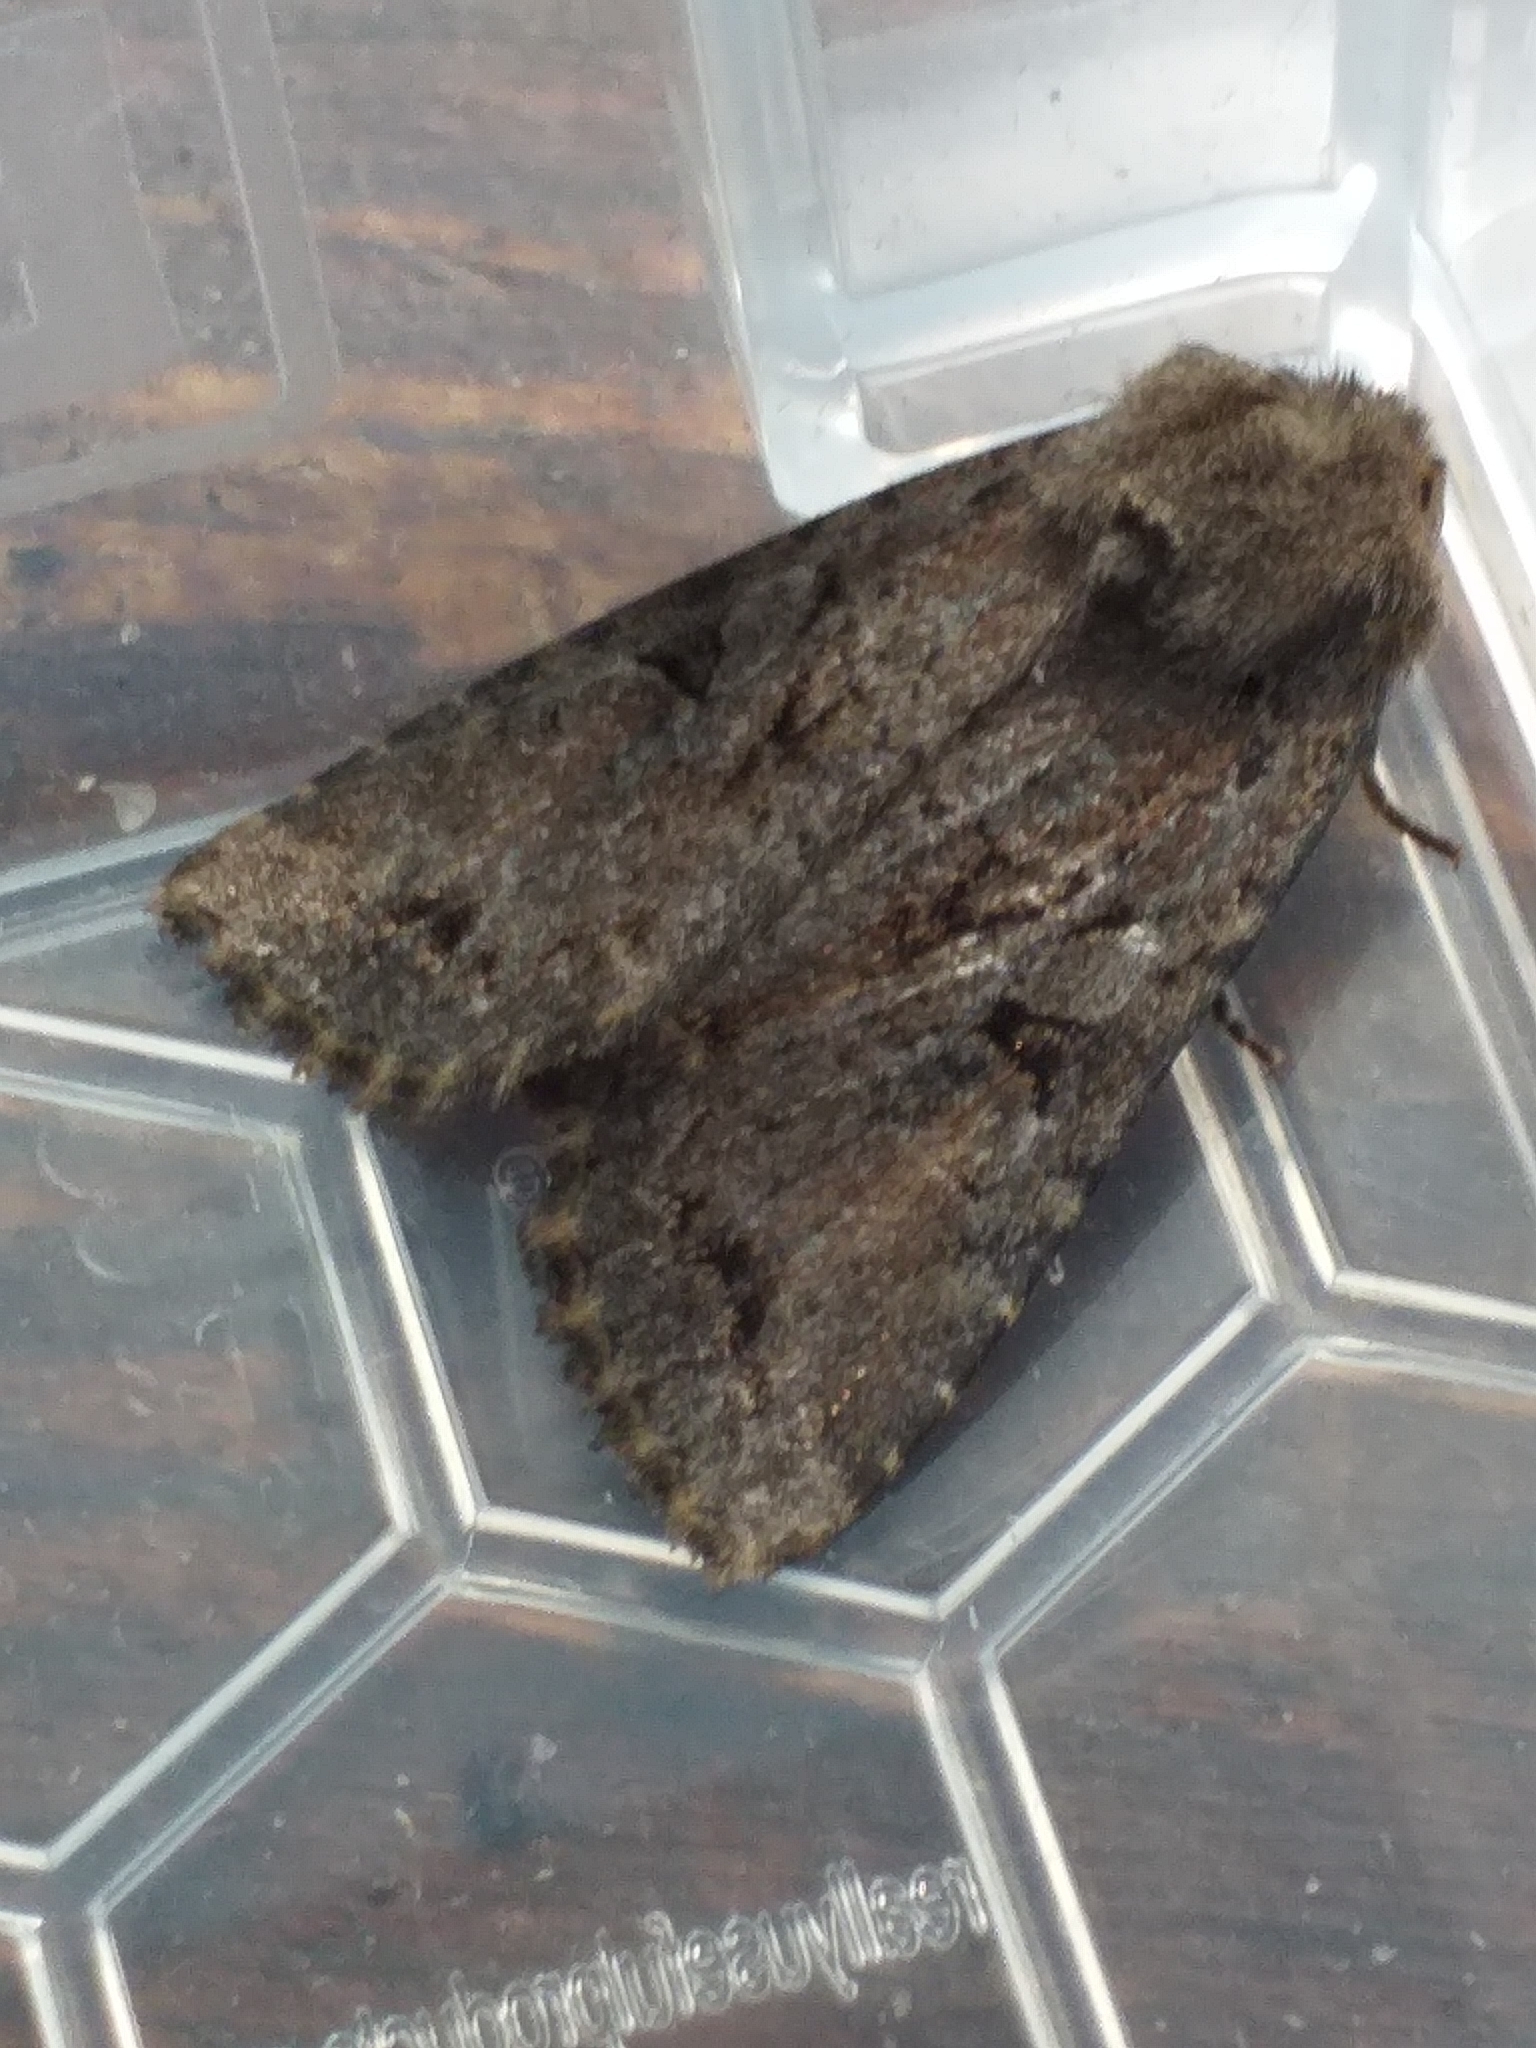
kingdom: Animalia
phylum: Arthropoda
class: Insecta
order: Lepidoptera
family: Noctuidae
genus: Apterogenum
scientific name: Apterogenum ypsillon
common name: Dingy shears
